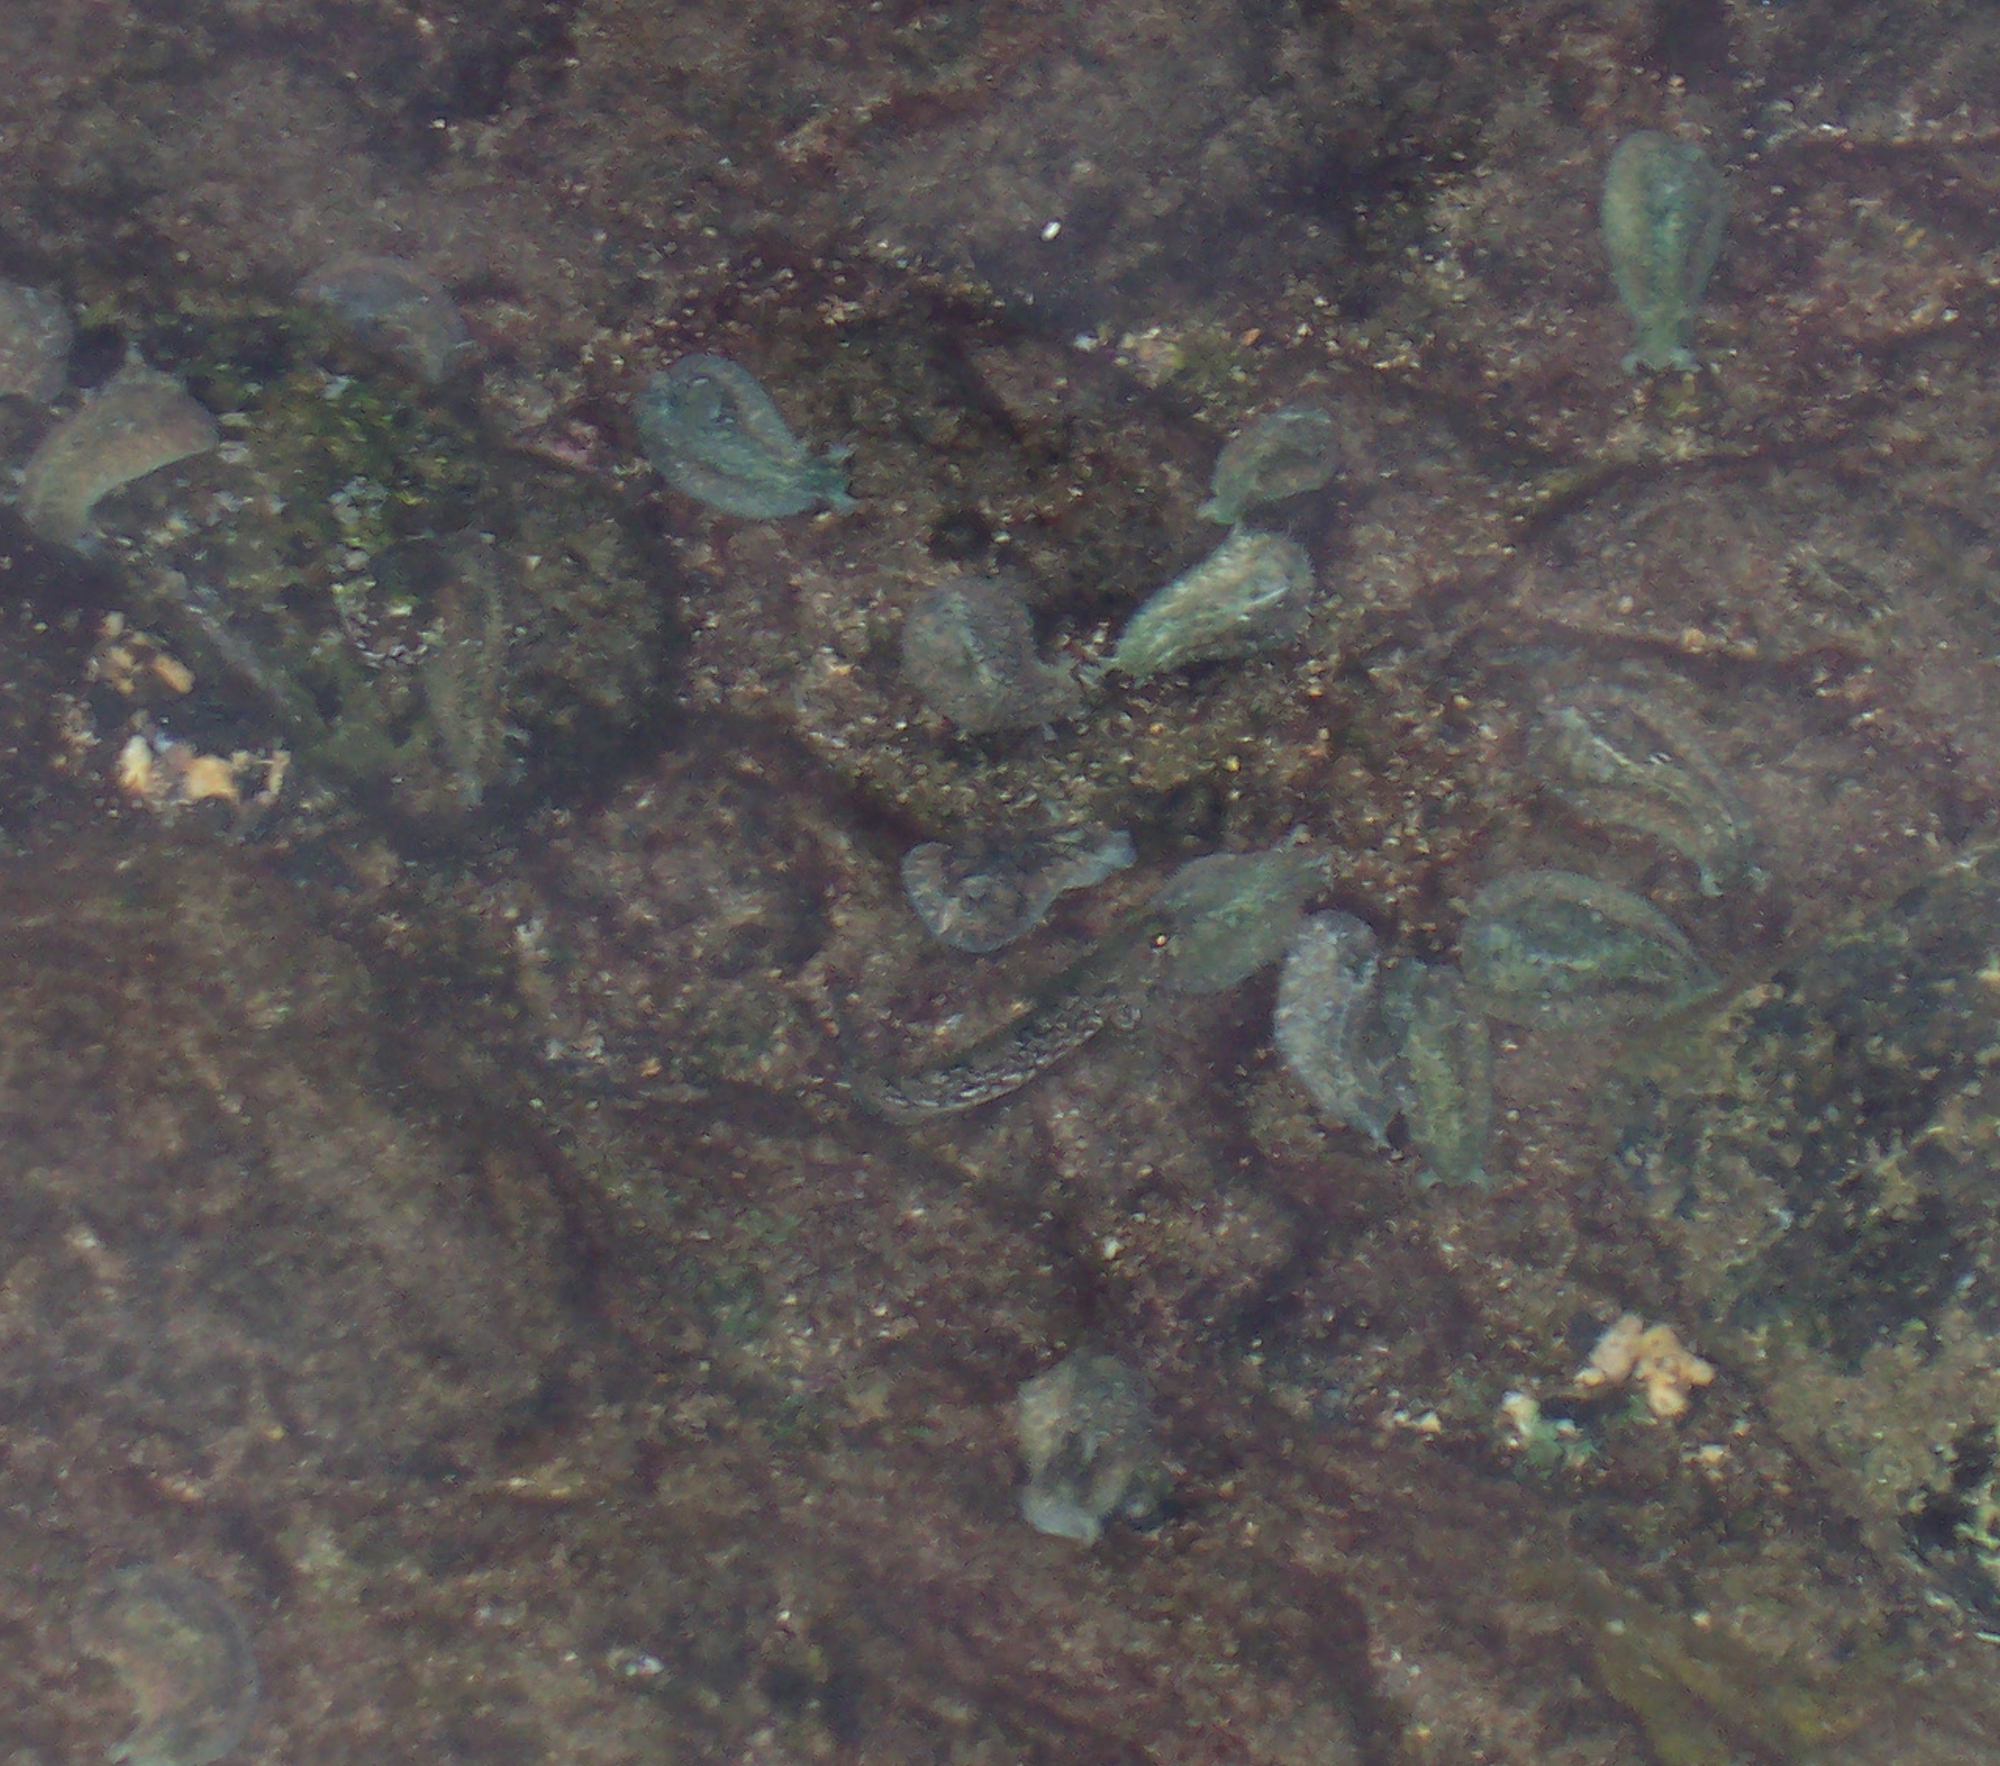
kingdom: Animalia
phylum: Chordata
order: Perciformes
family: Labrisomidae
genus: Dialommus
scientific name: Dialommus macrocephalus
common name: Foureye rockskipper
